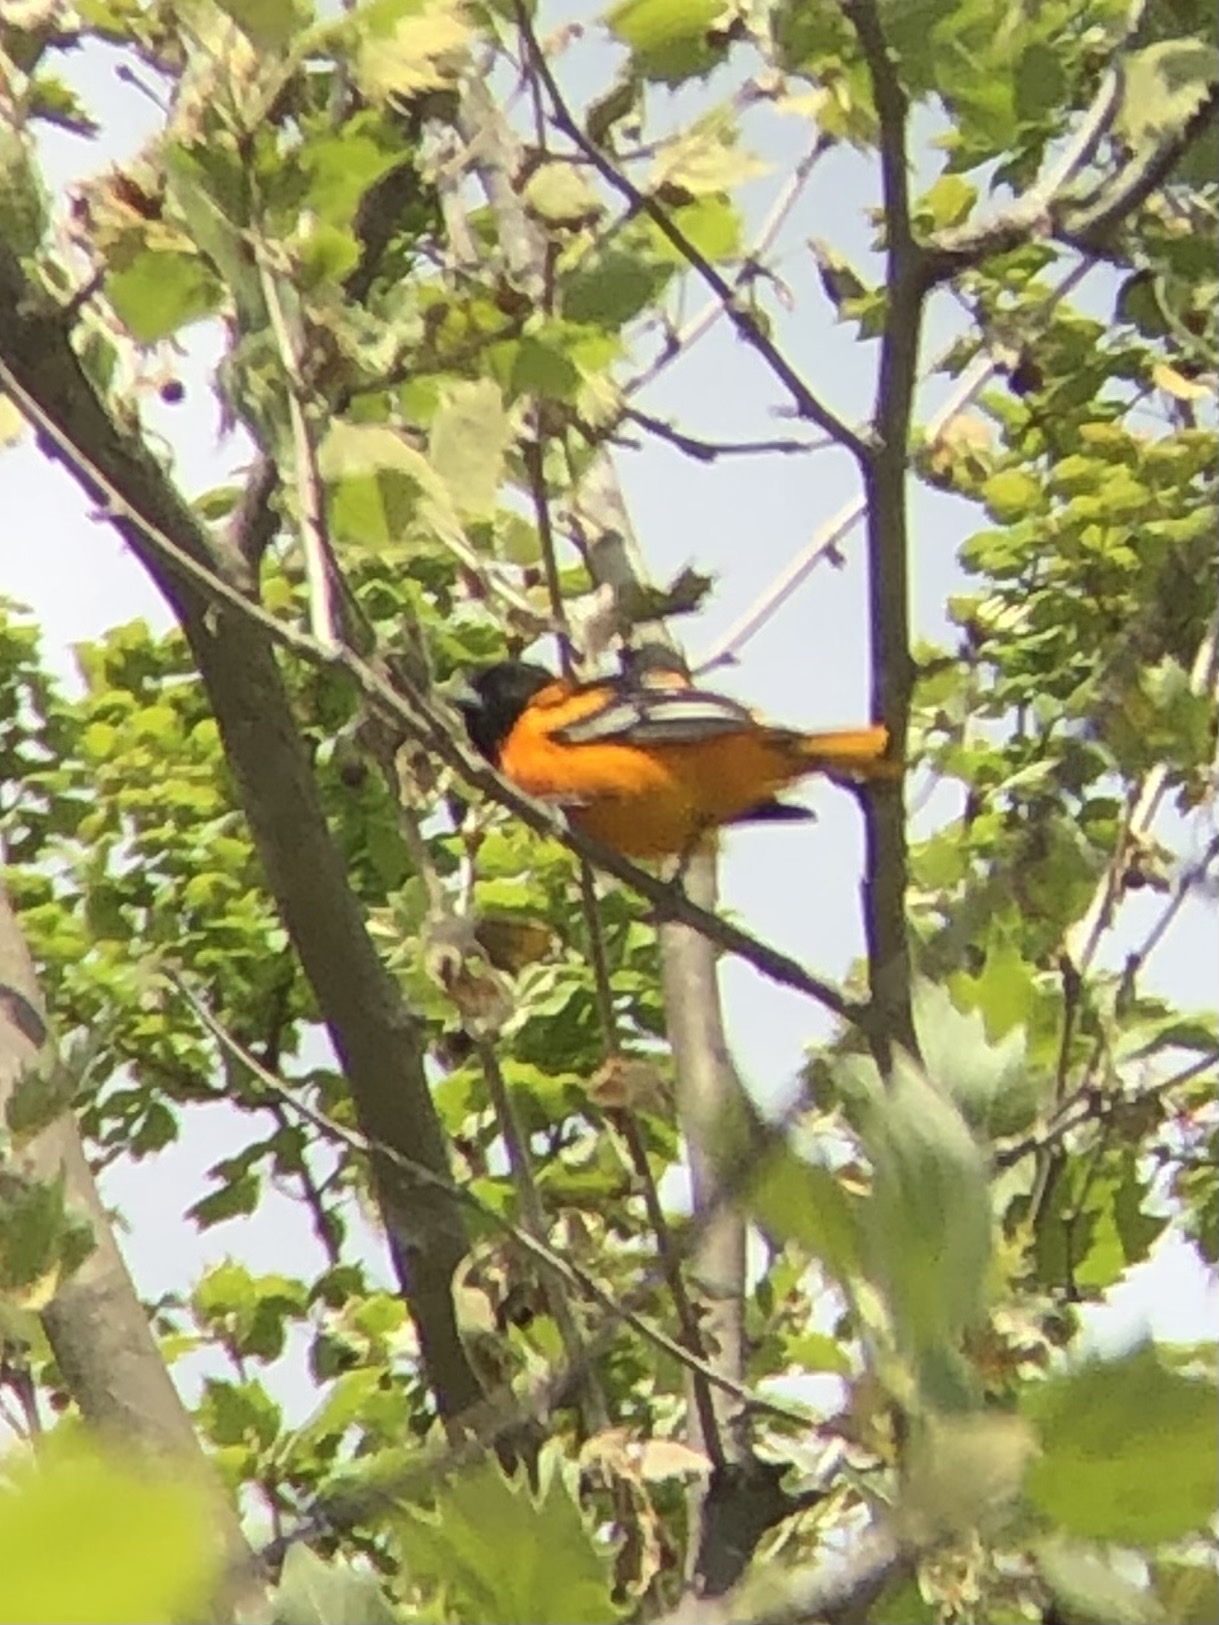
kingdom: Animalia
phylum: Chordata
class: Aves
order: Passeriformes
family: Icteridae
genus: Icterus
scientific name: Icterus galbula
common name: Baltimore oriole
